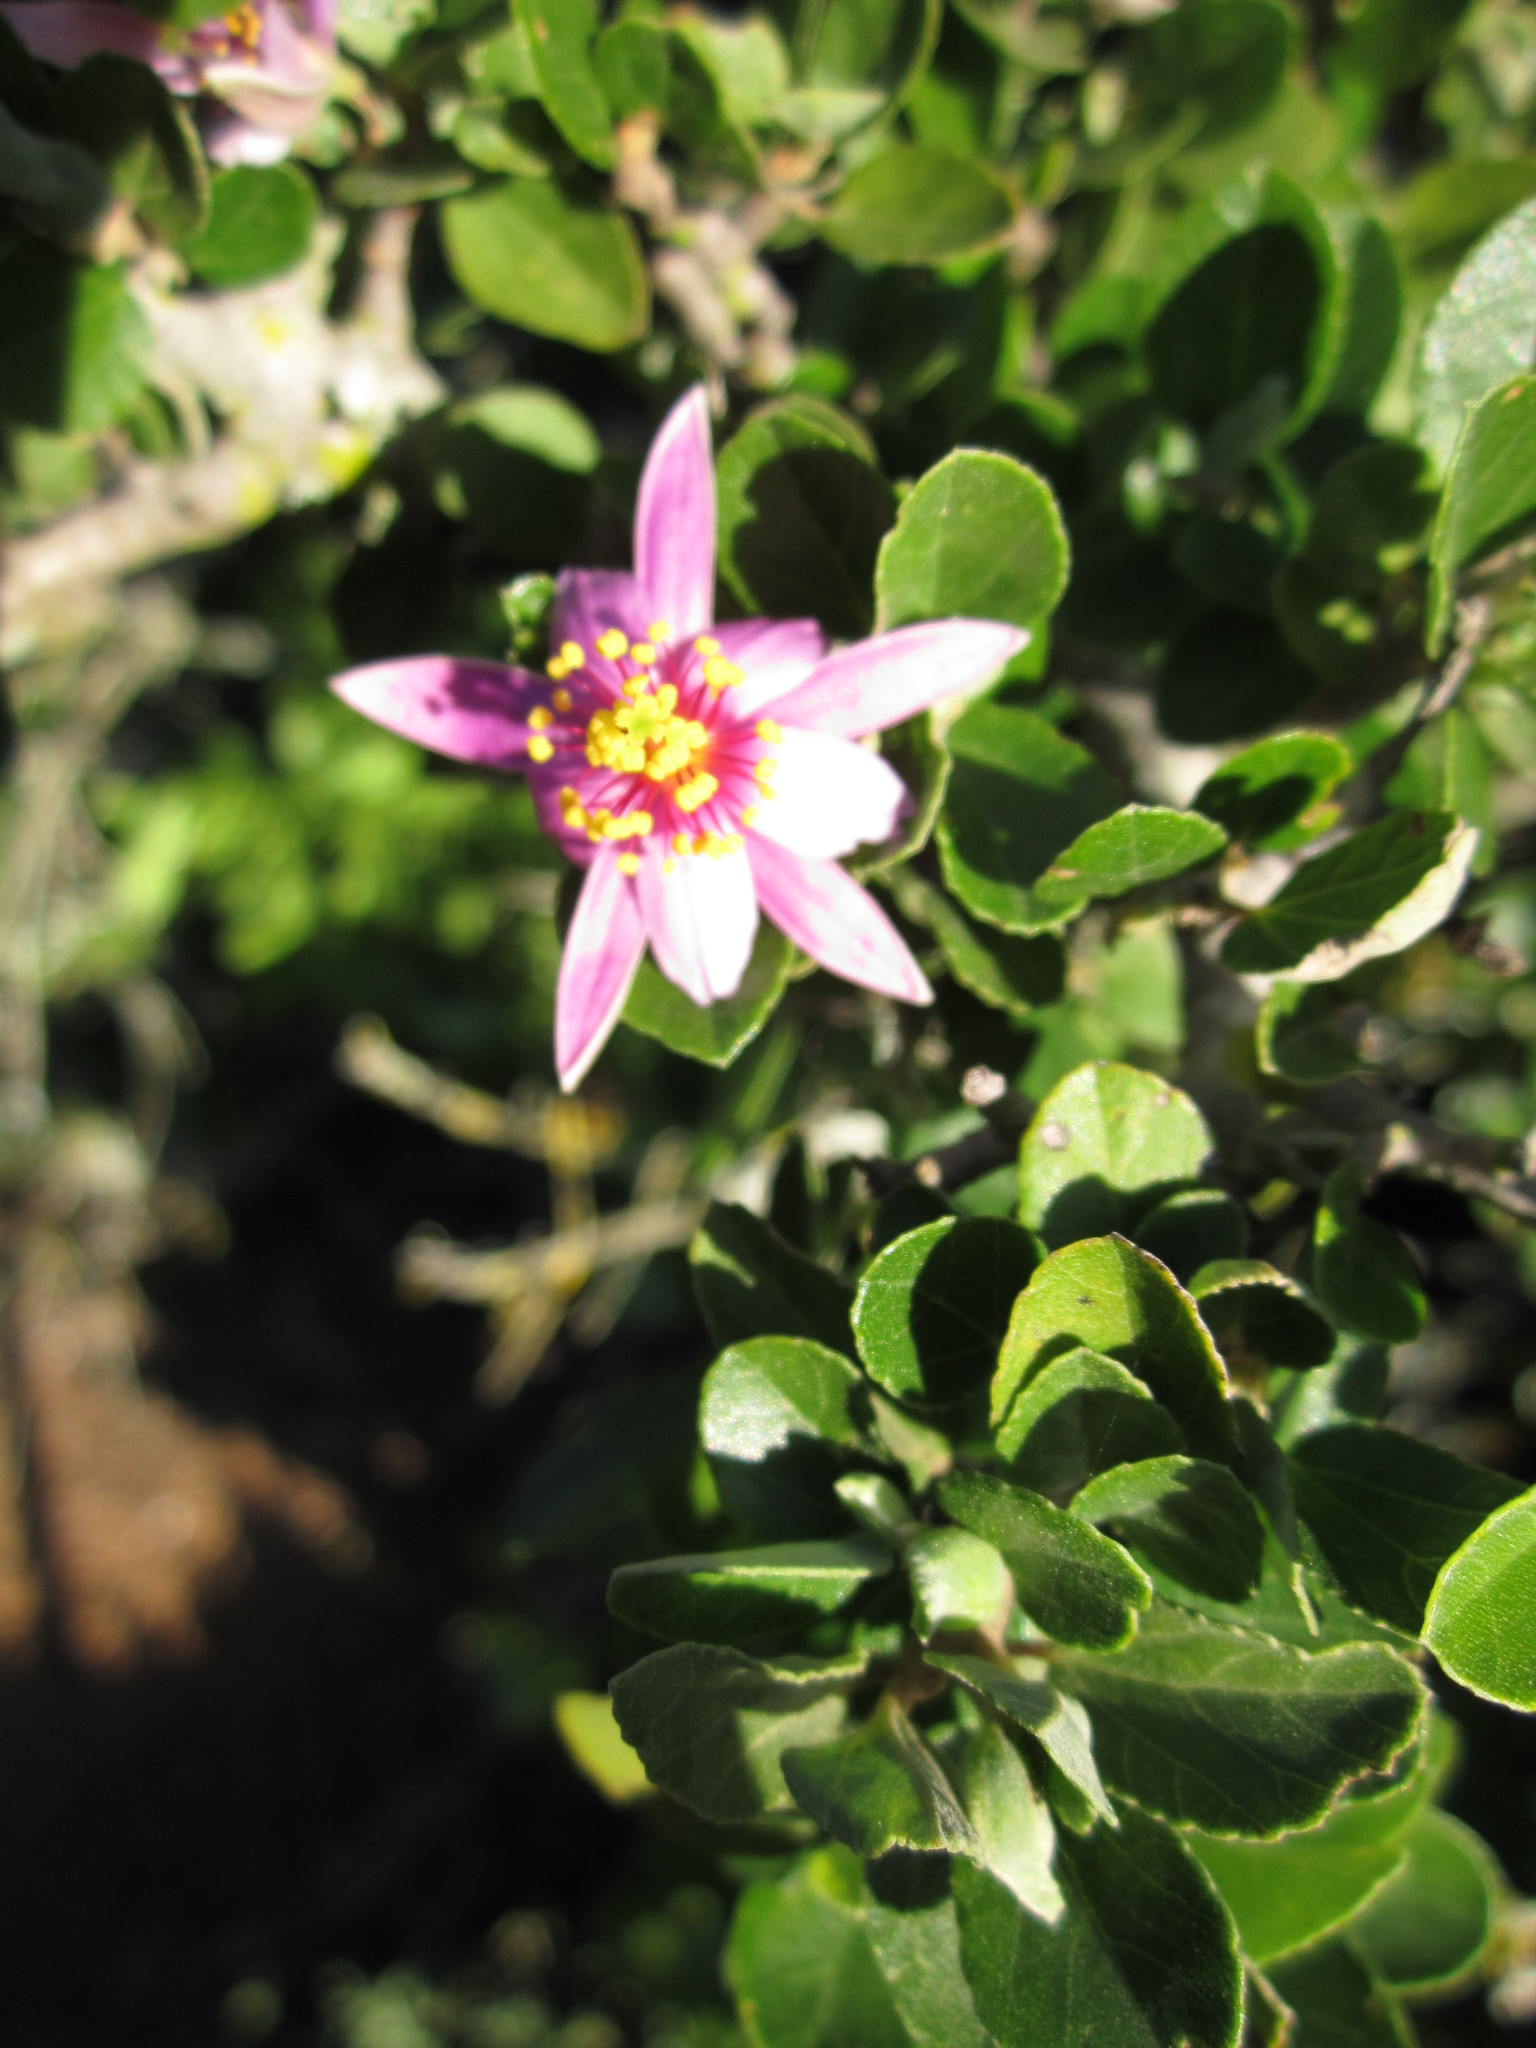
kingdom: Plantae
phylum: Tracheophyta
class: Magnoliopsida
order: Malvales
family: Malvaceae
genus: Grewia
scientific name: Grewia robusta
